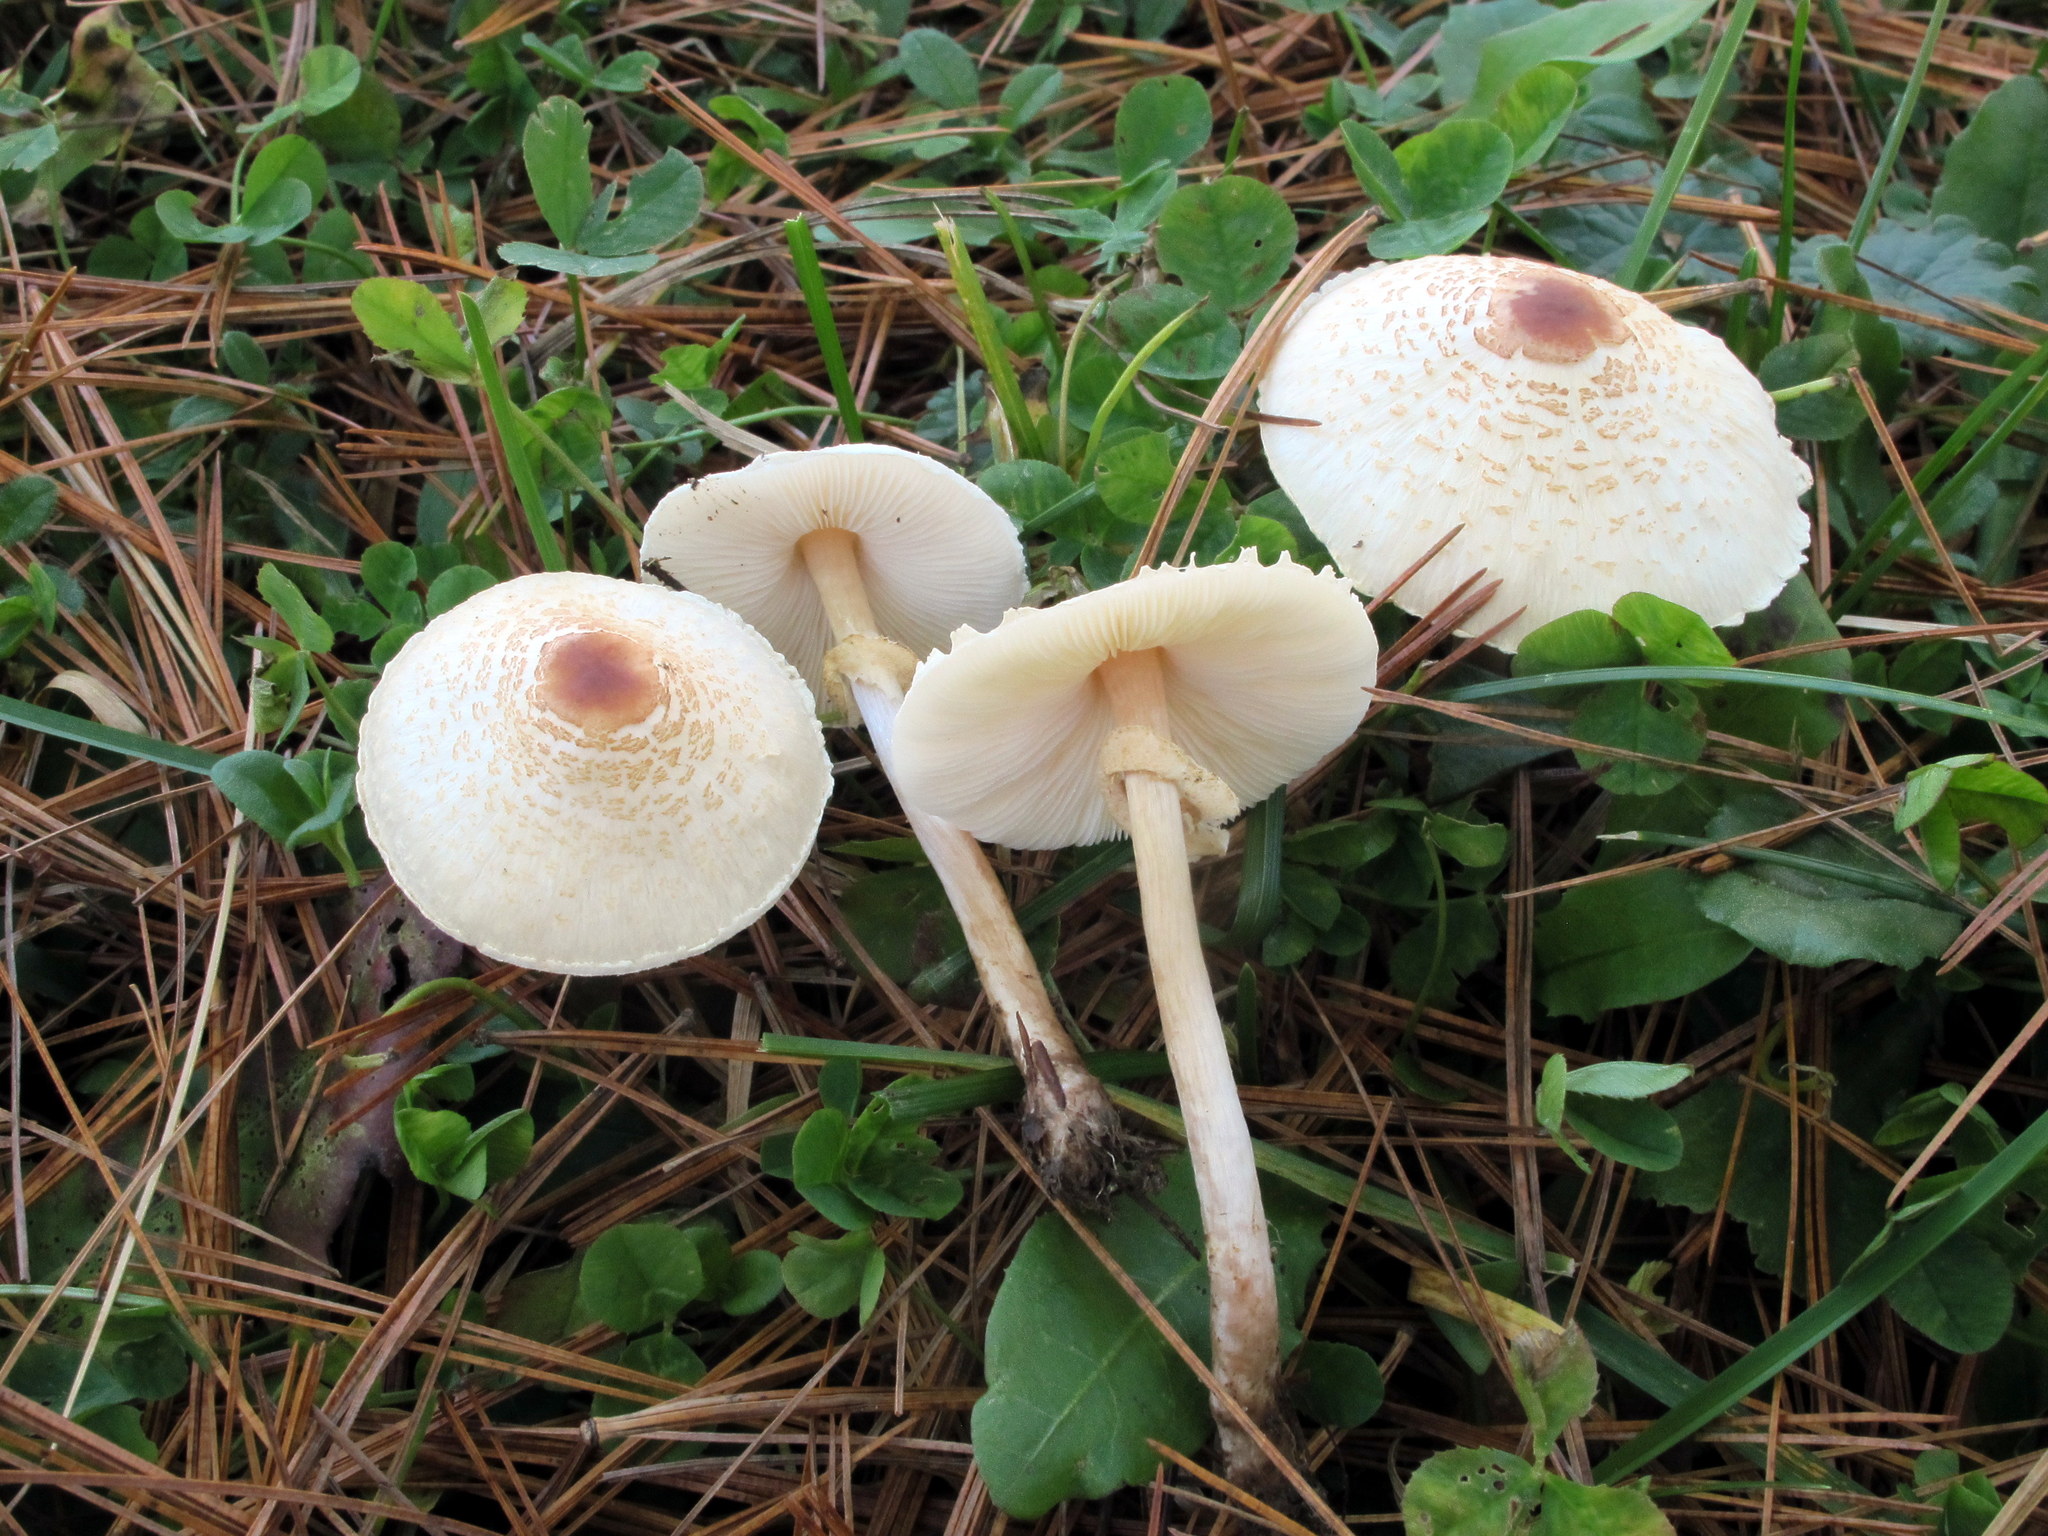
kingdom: Fungi
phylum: Basidiomycota
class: Agaricomycetes
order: Agaricales
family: Agaricaceae
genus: Lepiota
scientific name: Lepiota cristata
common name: Stinking dapperling
